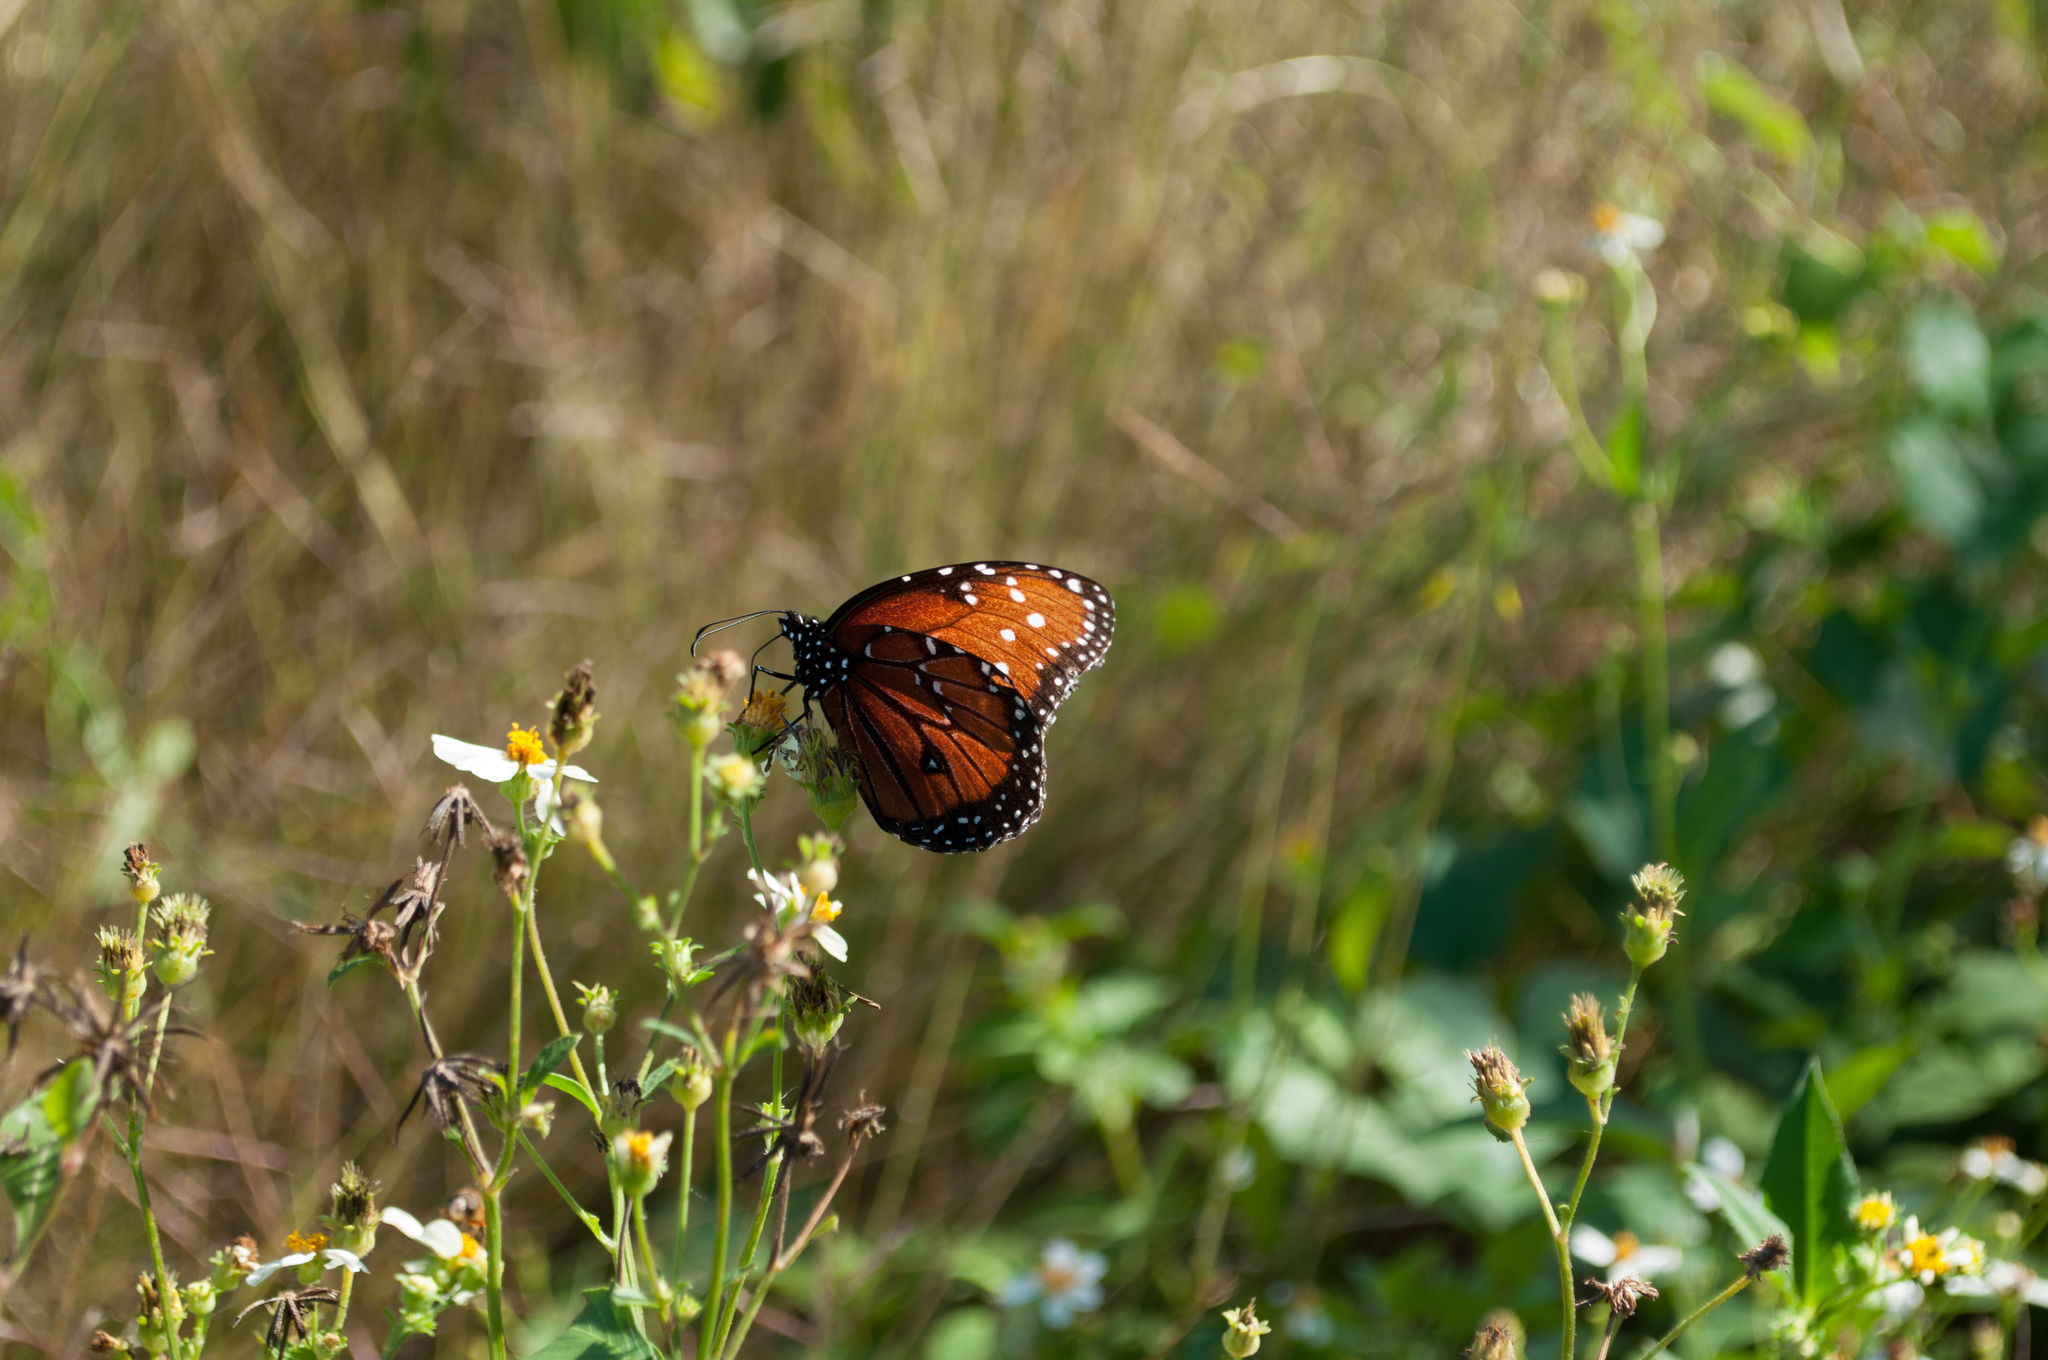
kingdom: Animalia
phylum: Arthropoda
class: Insecta
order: Lepidoptera
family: Nymphalidae
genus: Danaus
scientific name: Danaus gilippus
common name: Queen
